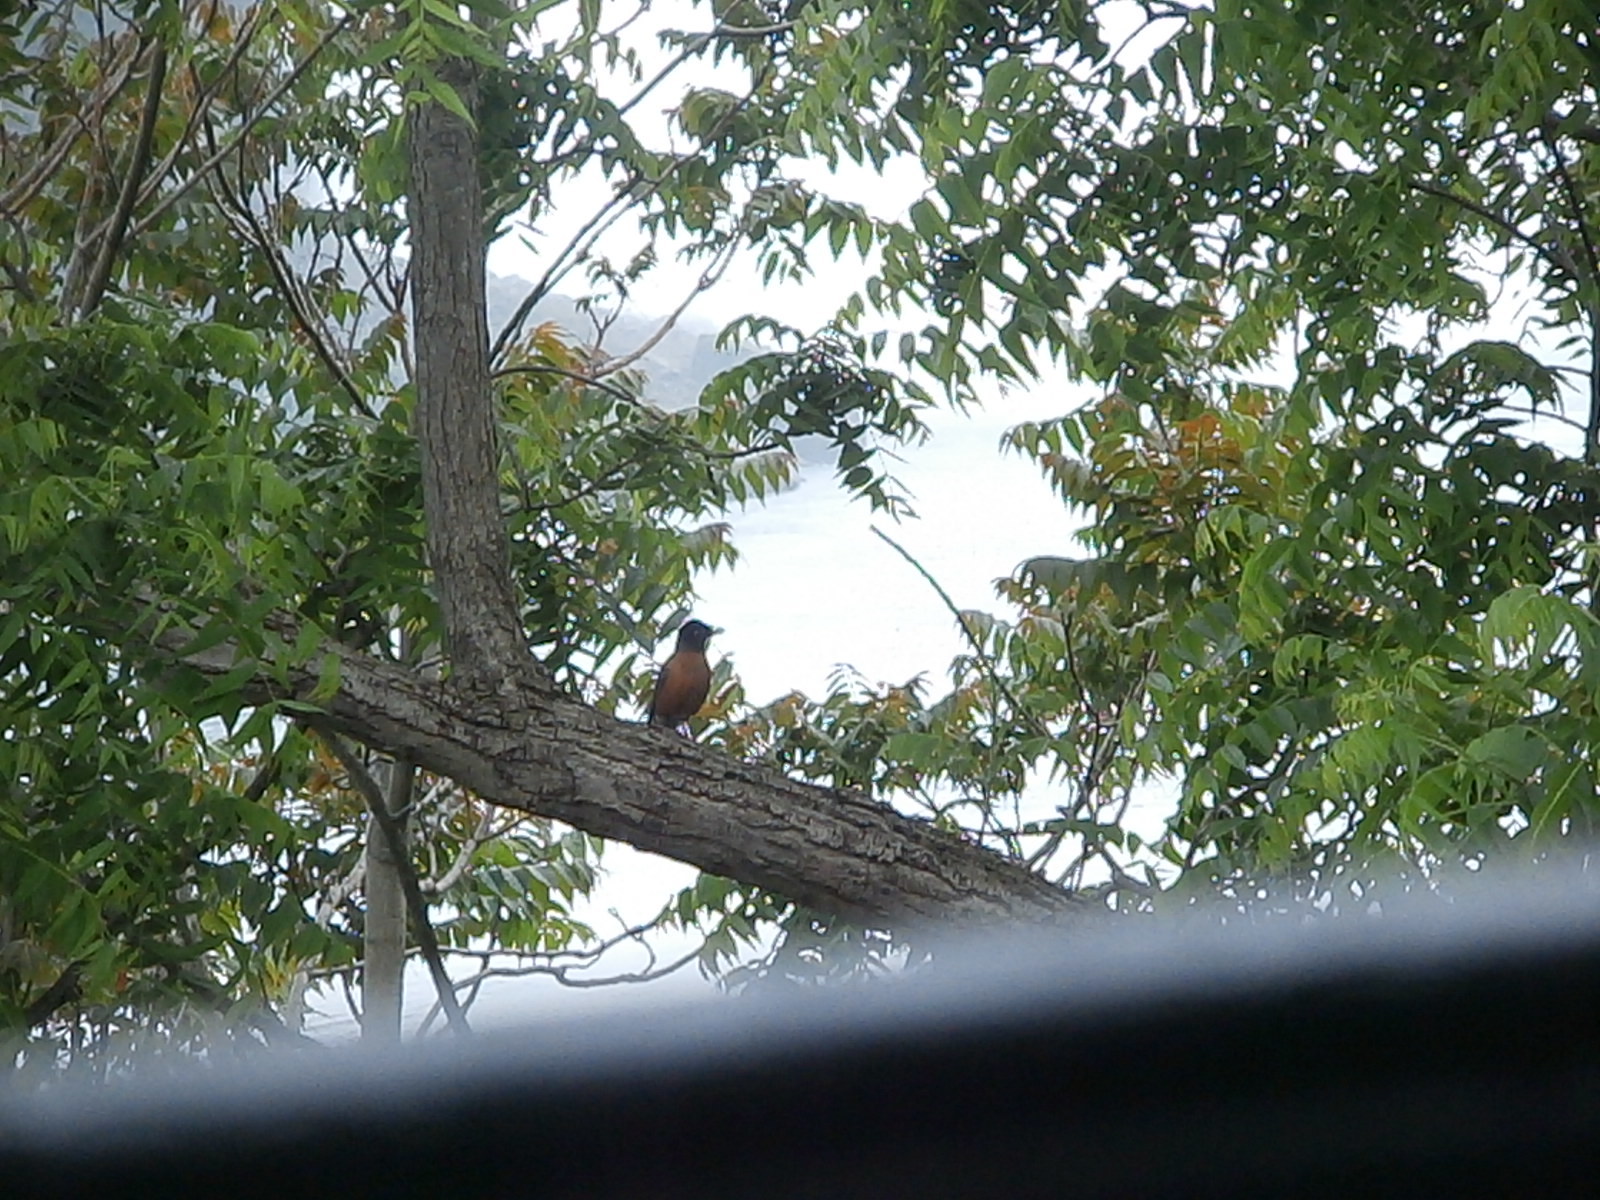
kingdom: Animalia
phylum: Chordata
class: Aves
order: Passeriformes
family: Turdidae
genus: Turdus
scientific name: Turdus migratorius
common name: American robin
